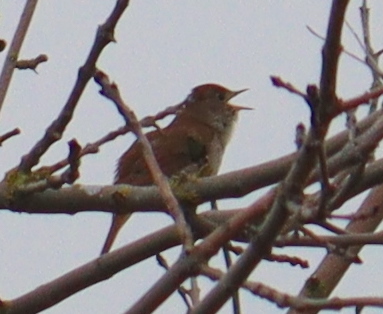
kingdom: Animalia
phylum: Chordata
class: Aves
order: Passeriformes
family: Muscicapidae
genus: Luscinia
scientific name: Luscinia megarhynchos
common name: Common nightingale
